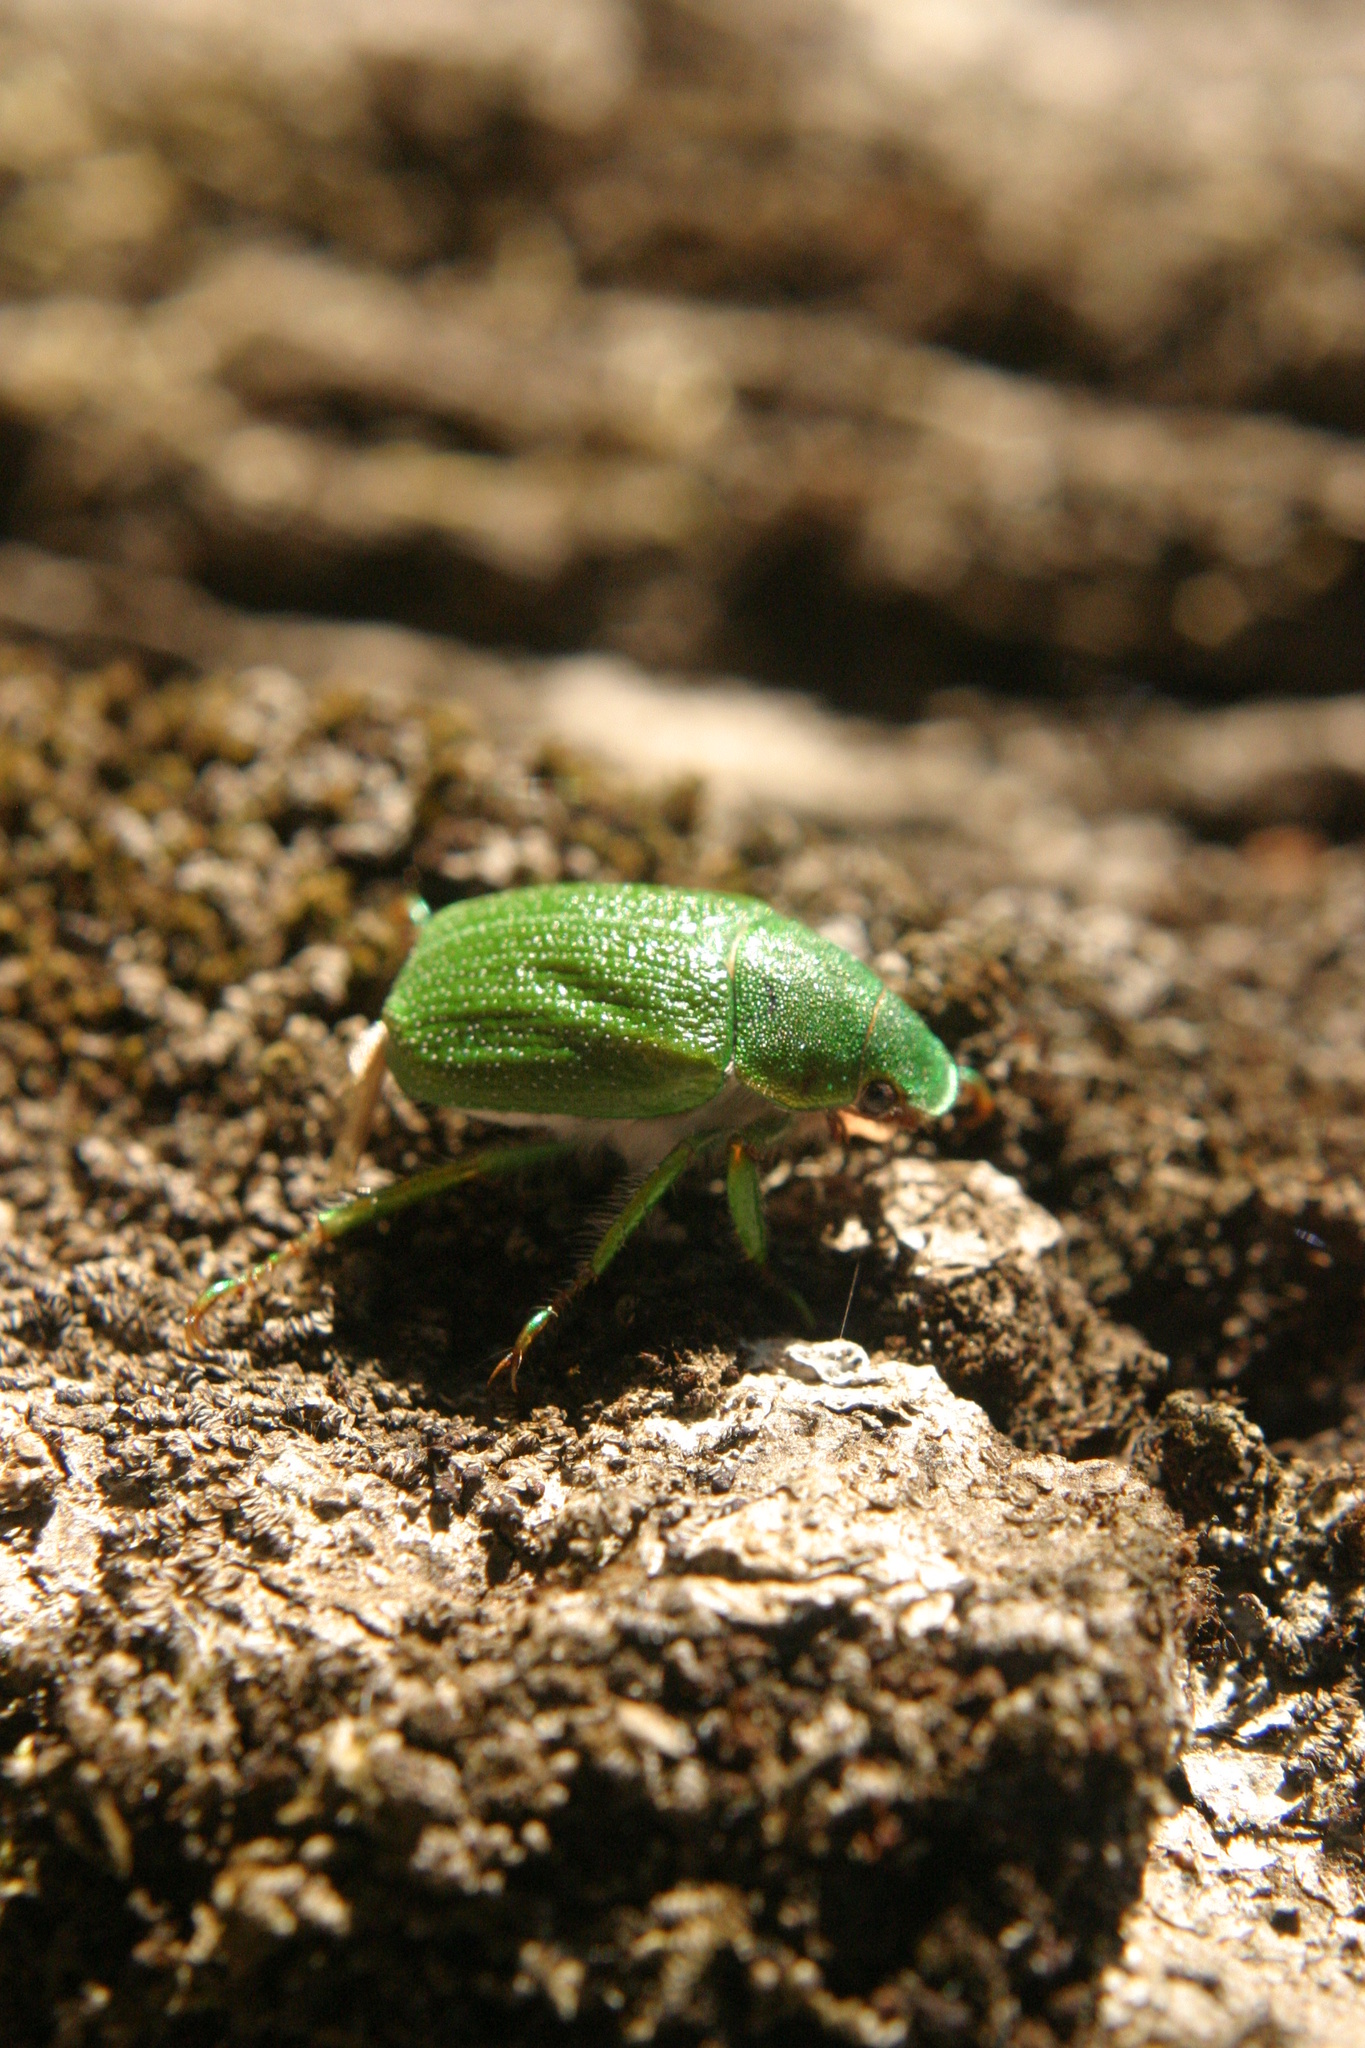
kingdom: Animalia
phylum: Arthropoda
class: Insecta
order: Coleoptera
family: Scarabaeidae
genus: Hylamorpha
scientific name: Hylamorpha elegans
